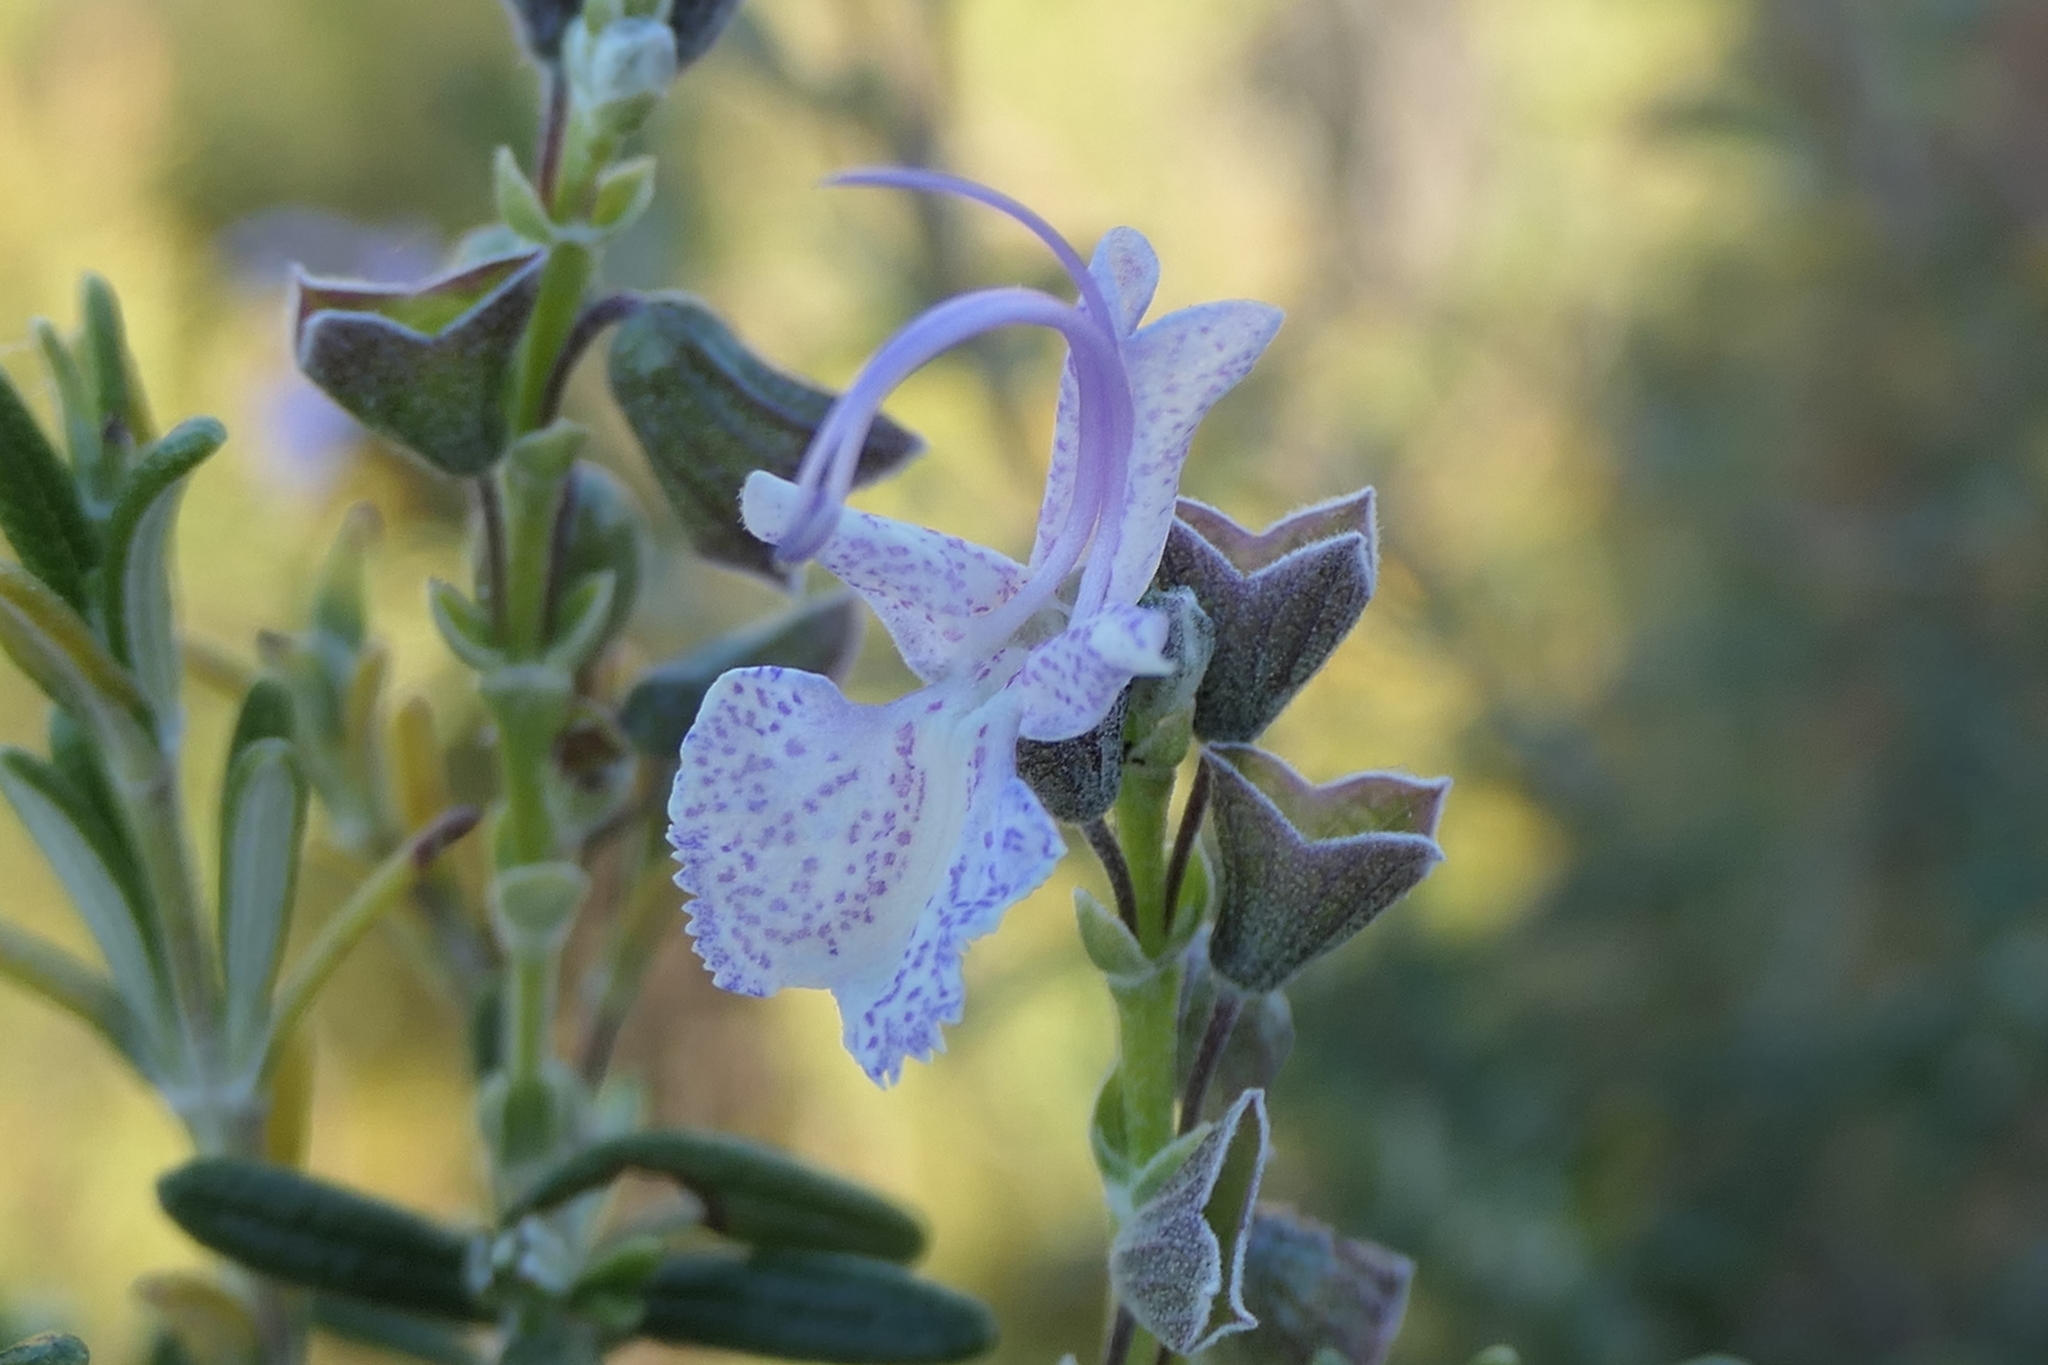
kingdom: Plantae
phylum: Tracheophyta
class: Magnoliopsida
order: Lamiales
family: Lamiaceae
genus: Salvia
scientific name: Salvia rosmarinus
